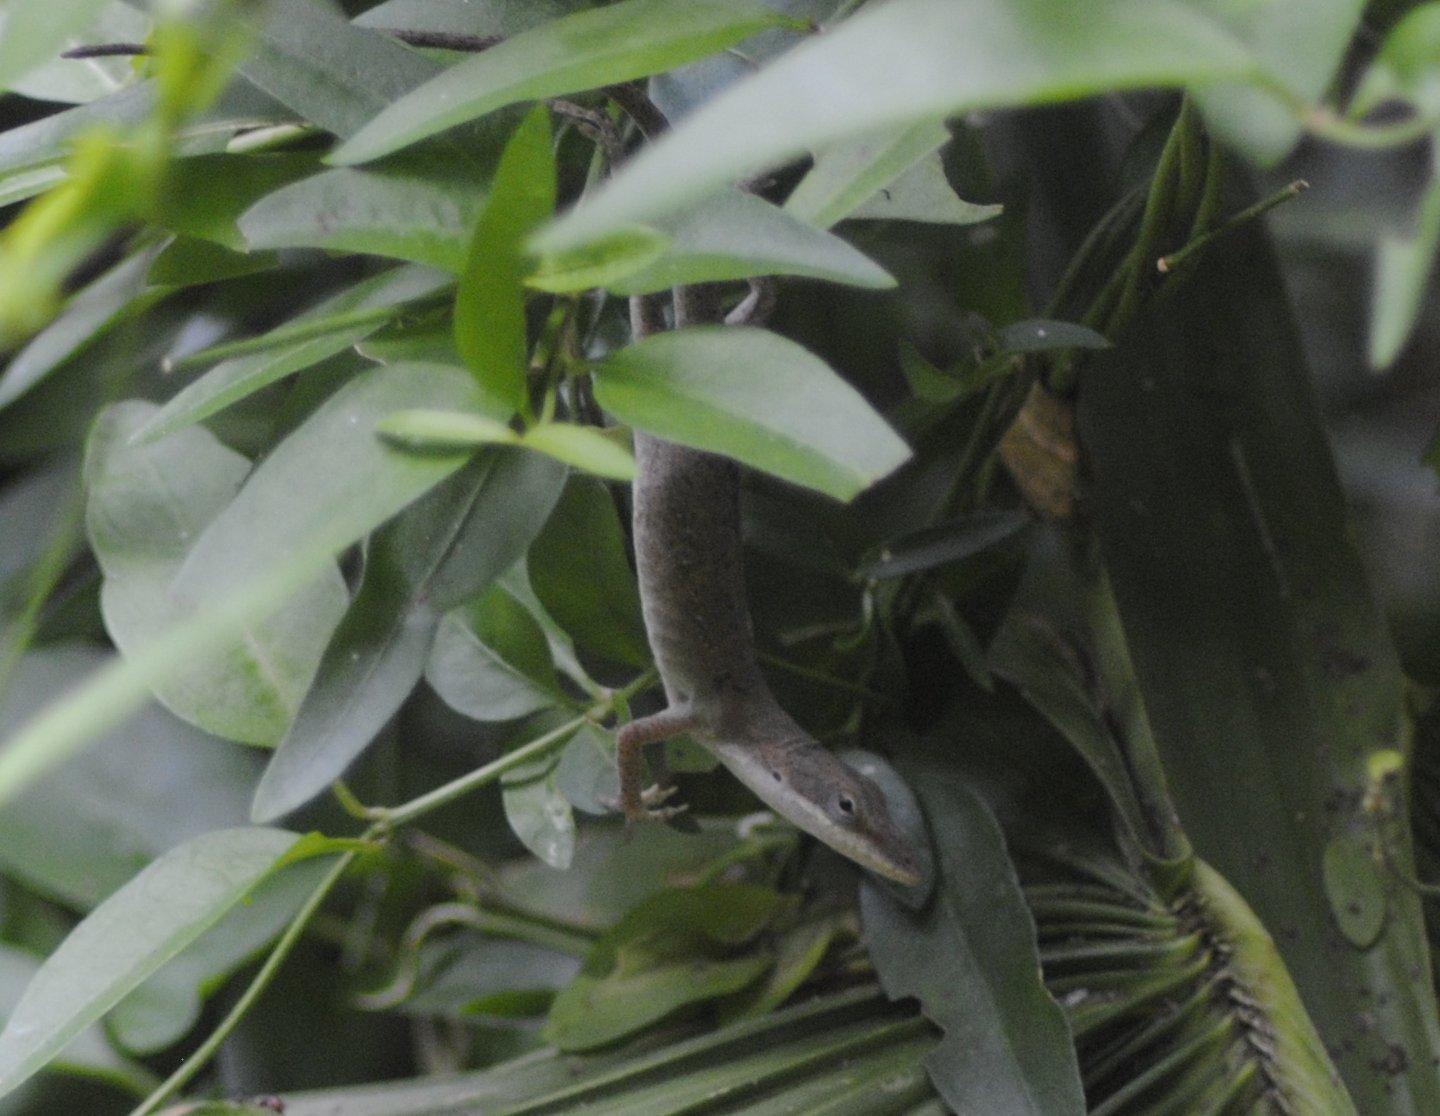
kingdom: Animalia
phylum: Chordata
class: Squamata
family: Dactyloidae
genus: Anolis
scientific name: Anolis carolinensis
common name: Green anole
